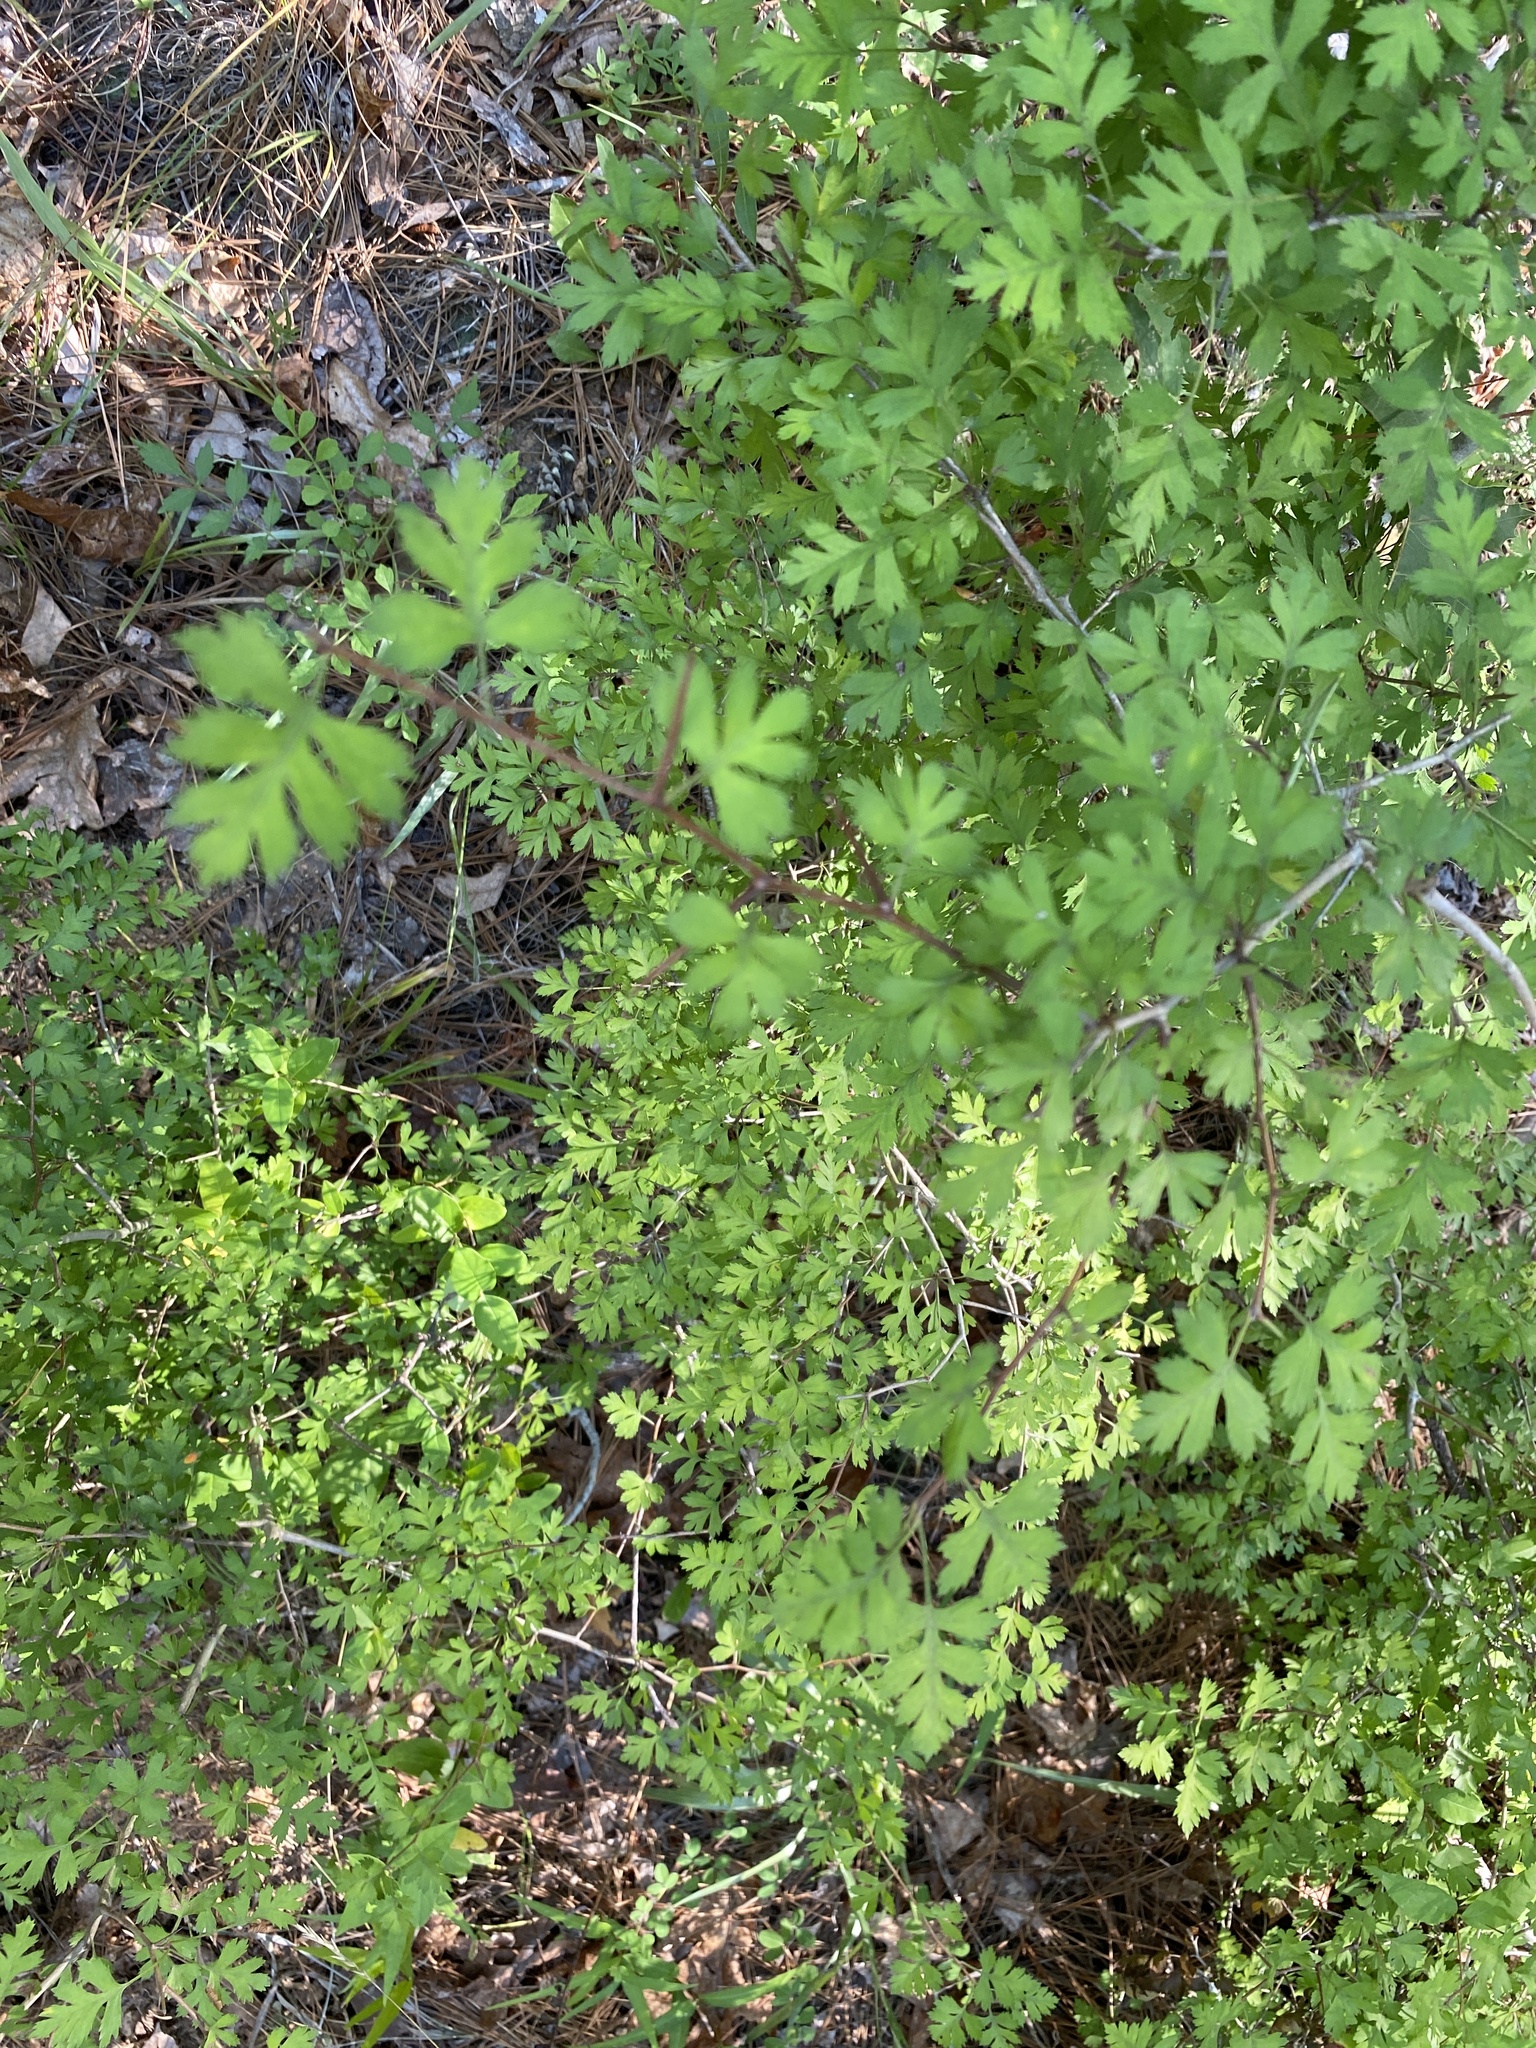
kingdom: Plantae
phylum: Tracheophyta
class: Magnoliopsida
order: Rosales
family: Rosaceae
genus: Crataegus
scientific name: Crataegus marshallii
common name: Parsley-hawthorn
